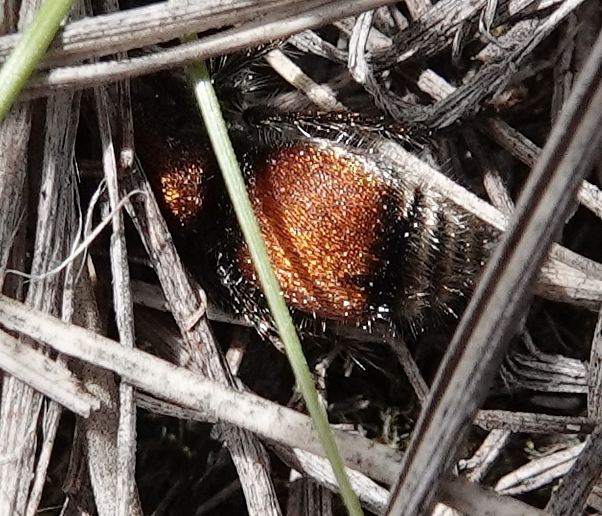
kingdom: Animalia
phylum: Arthropoda
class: Insecta
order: Hymenoptera
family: Mutillidae
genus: Pseudomethoca
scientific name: Pseudomethoca
